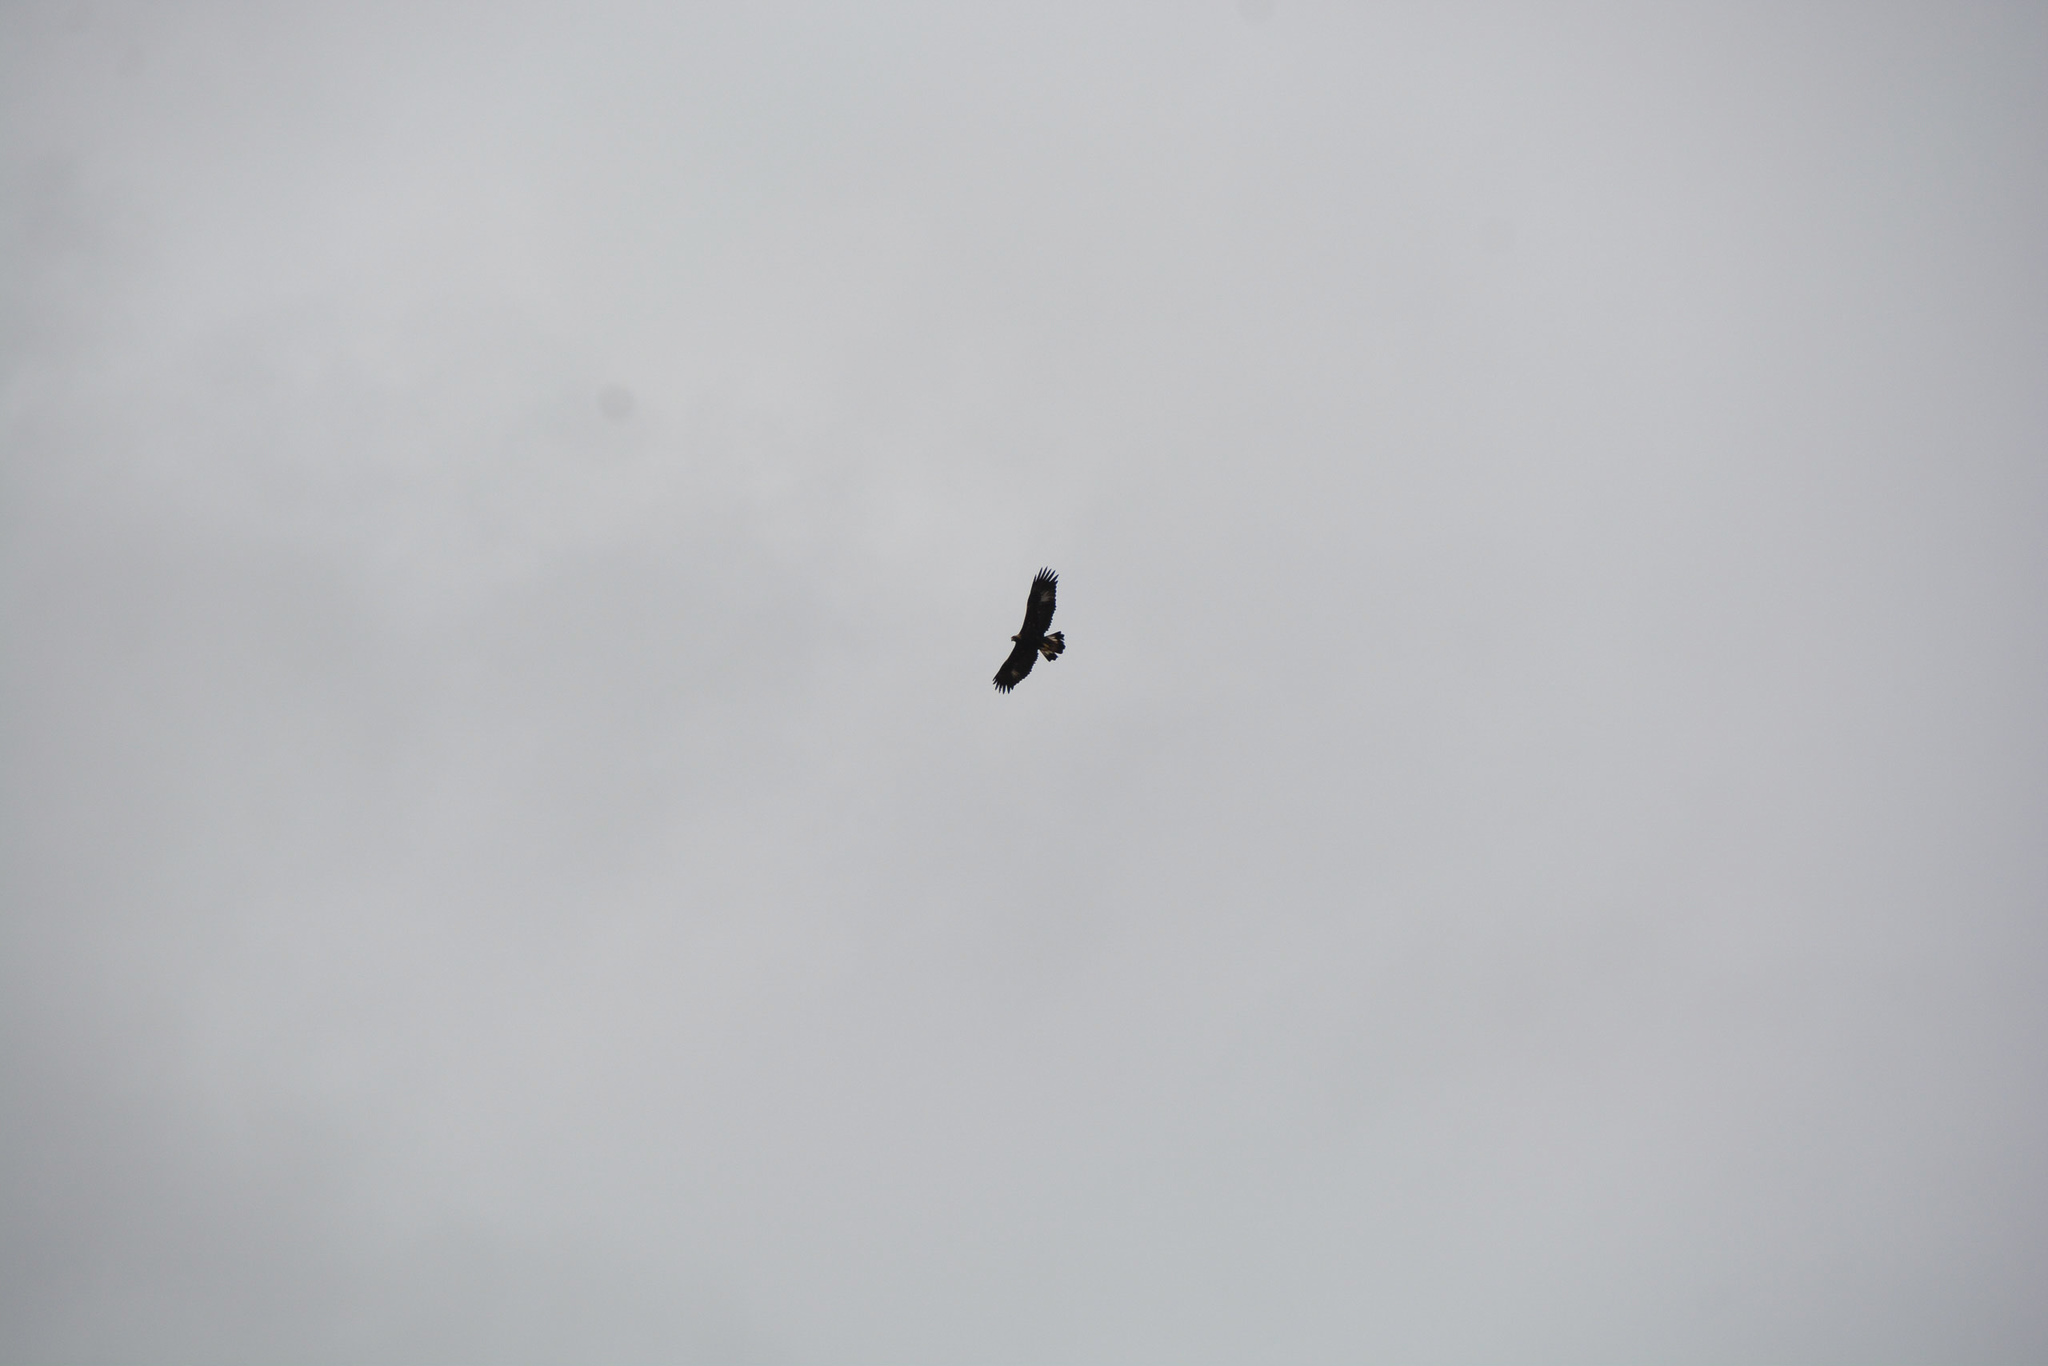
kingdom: Animalia
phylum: Chordata
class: Aves
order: Accipitriformes
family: Accipitridae
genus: Aquila
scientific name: Aquila chrysaetos
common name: Golden eagle
